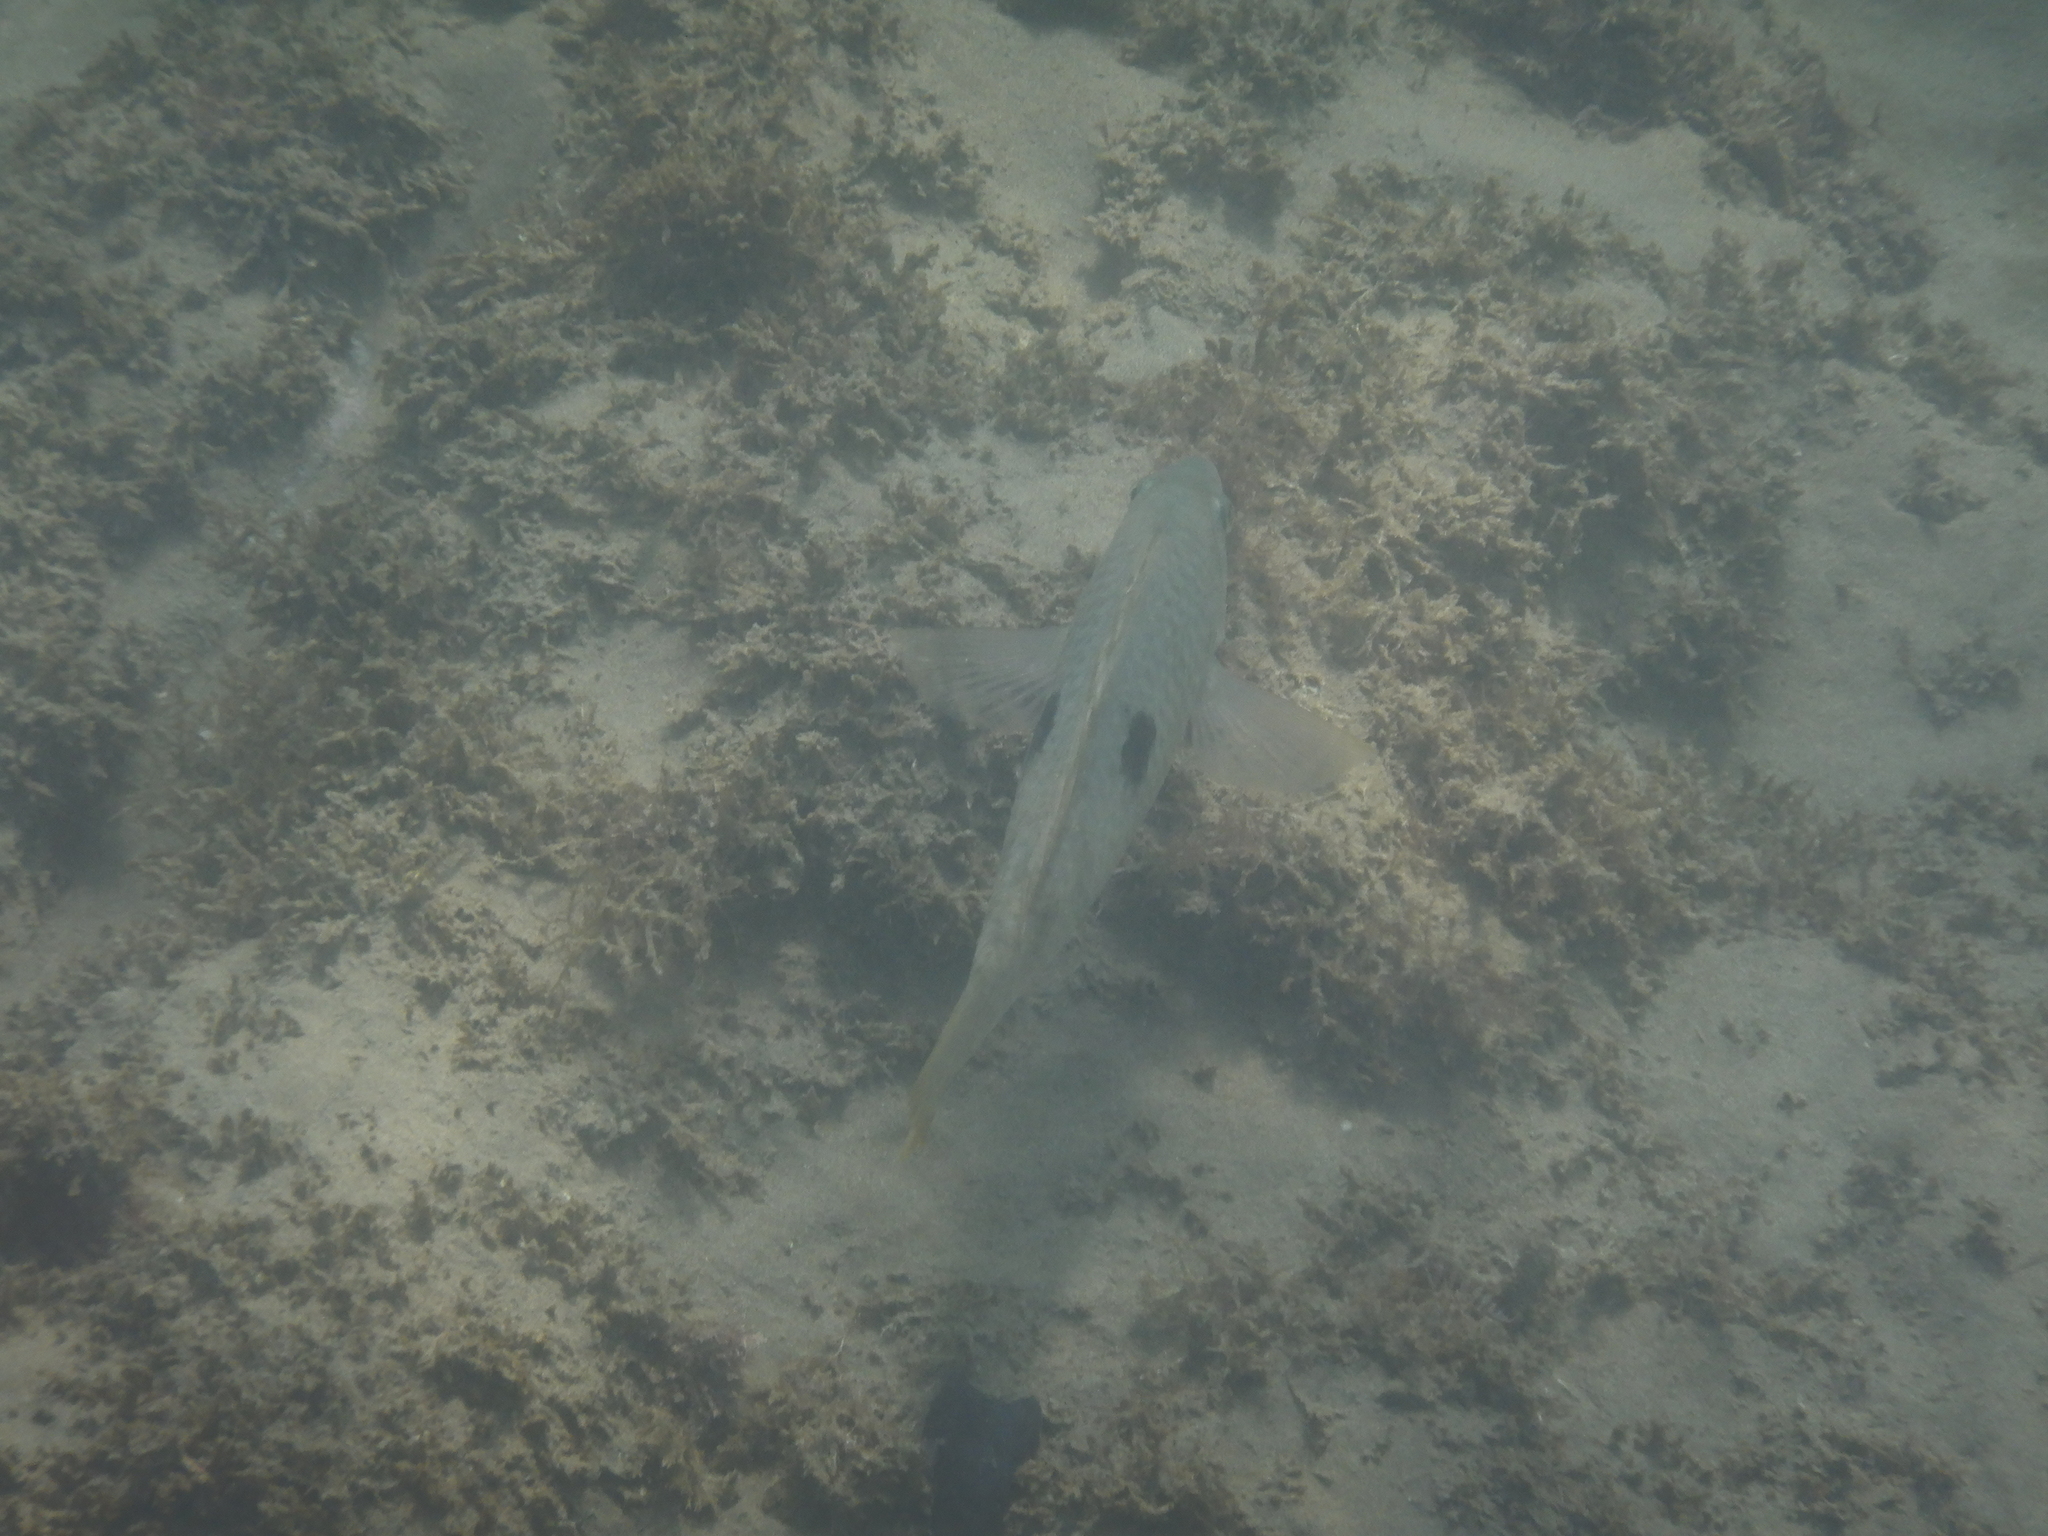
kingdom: Animalia
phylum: Chordata
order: Perciformes
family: Labridae
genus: Notolabrus
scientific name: Notolabrus celidotus
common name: Spotty
